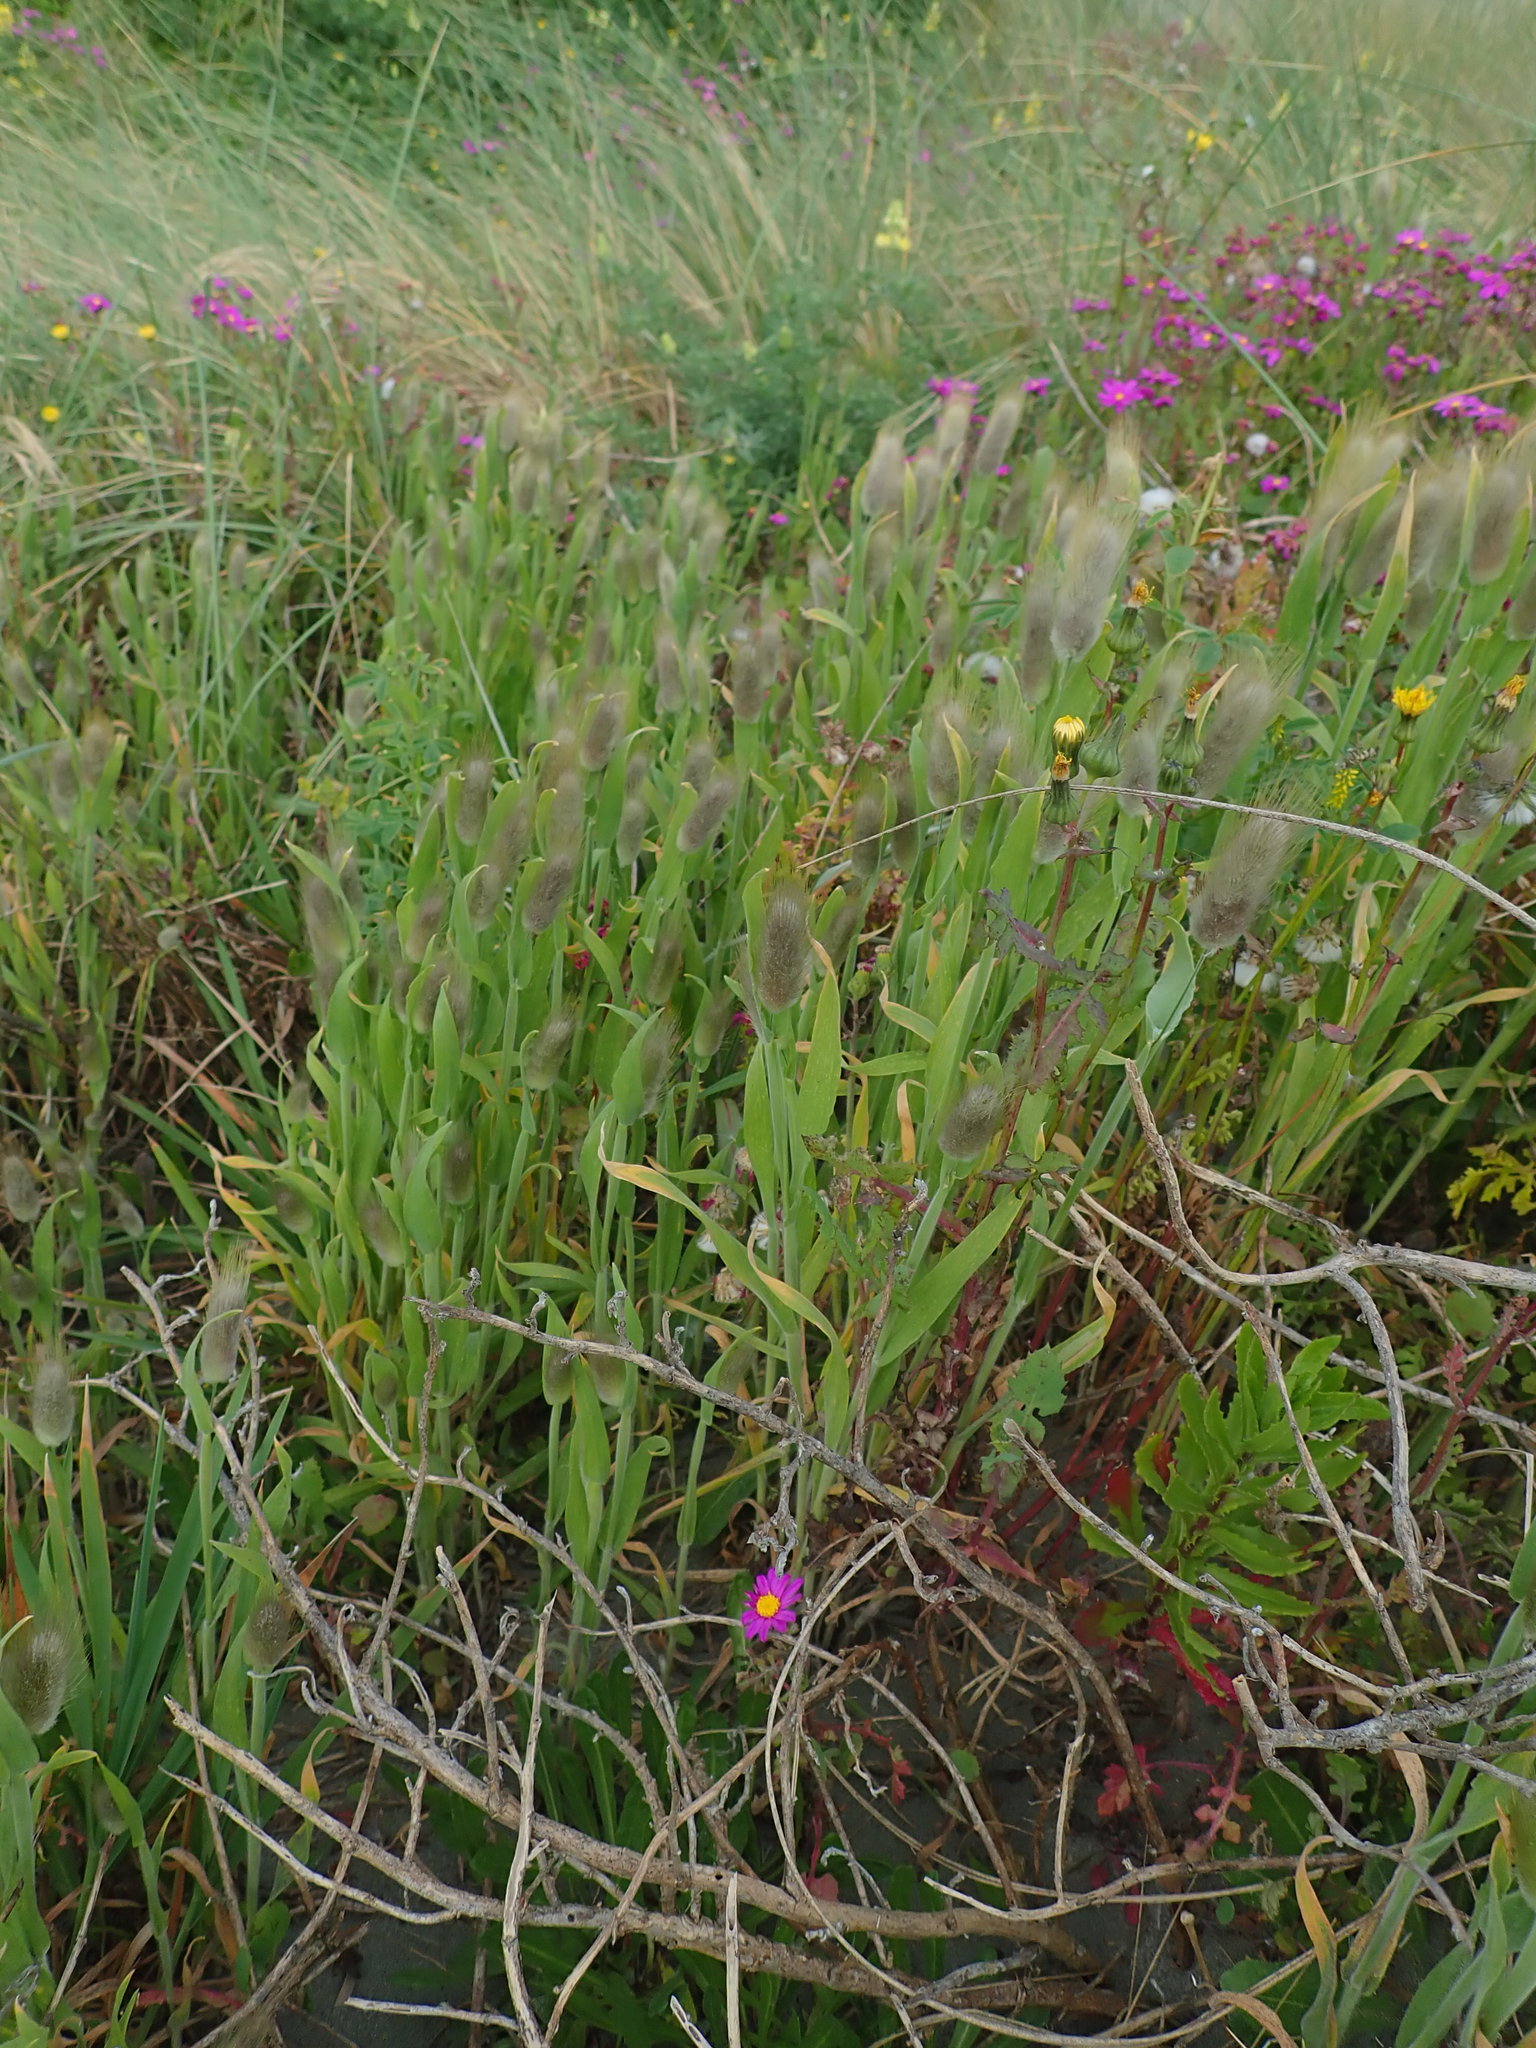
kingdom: Plantae
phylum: Tracheophyta
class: Liliopsida
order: Poales
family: Poaceae
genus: Lagurus
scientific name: Lagurus ovatus
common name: Hare's-tail
